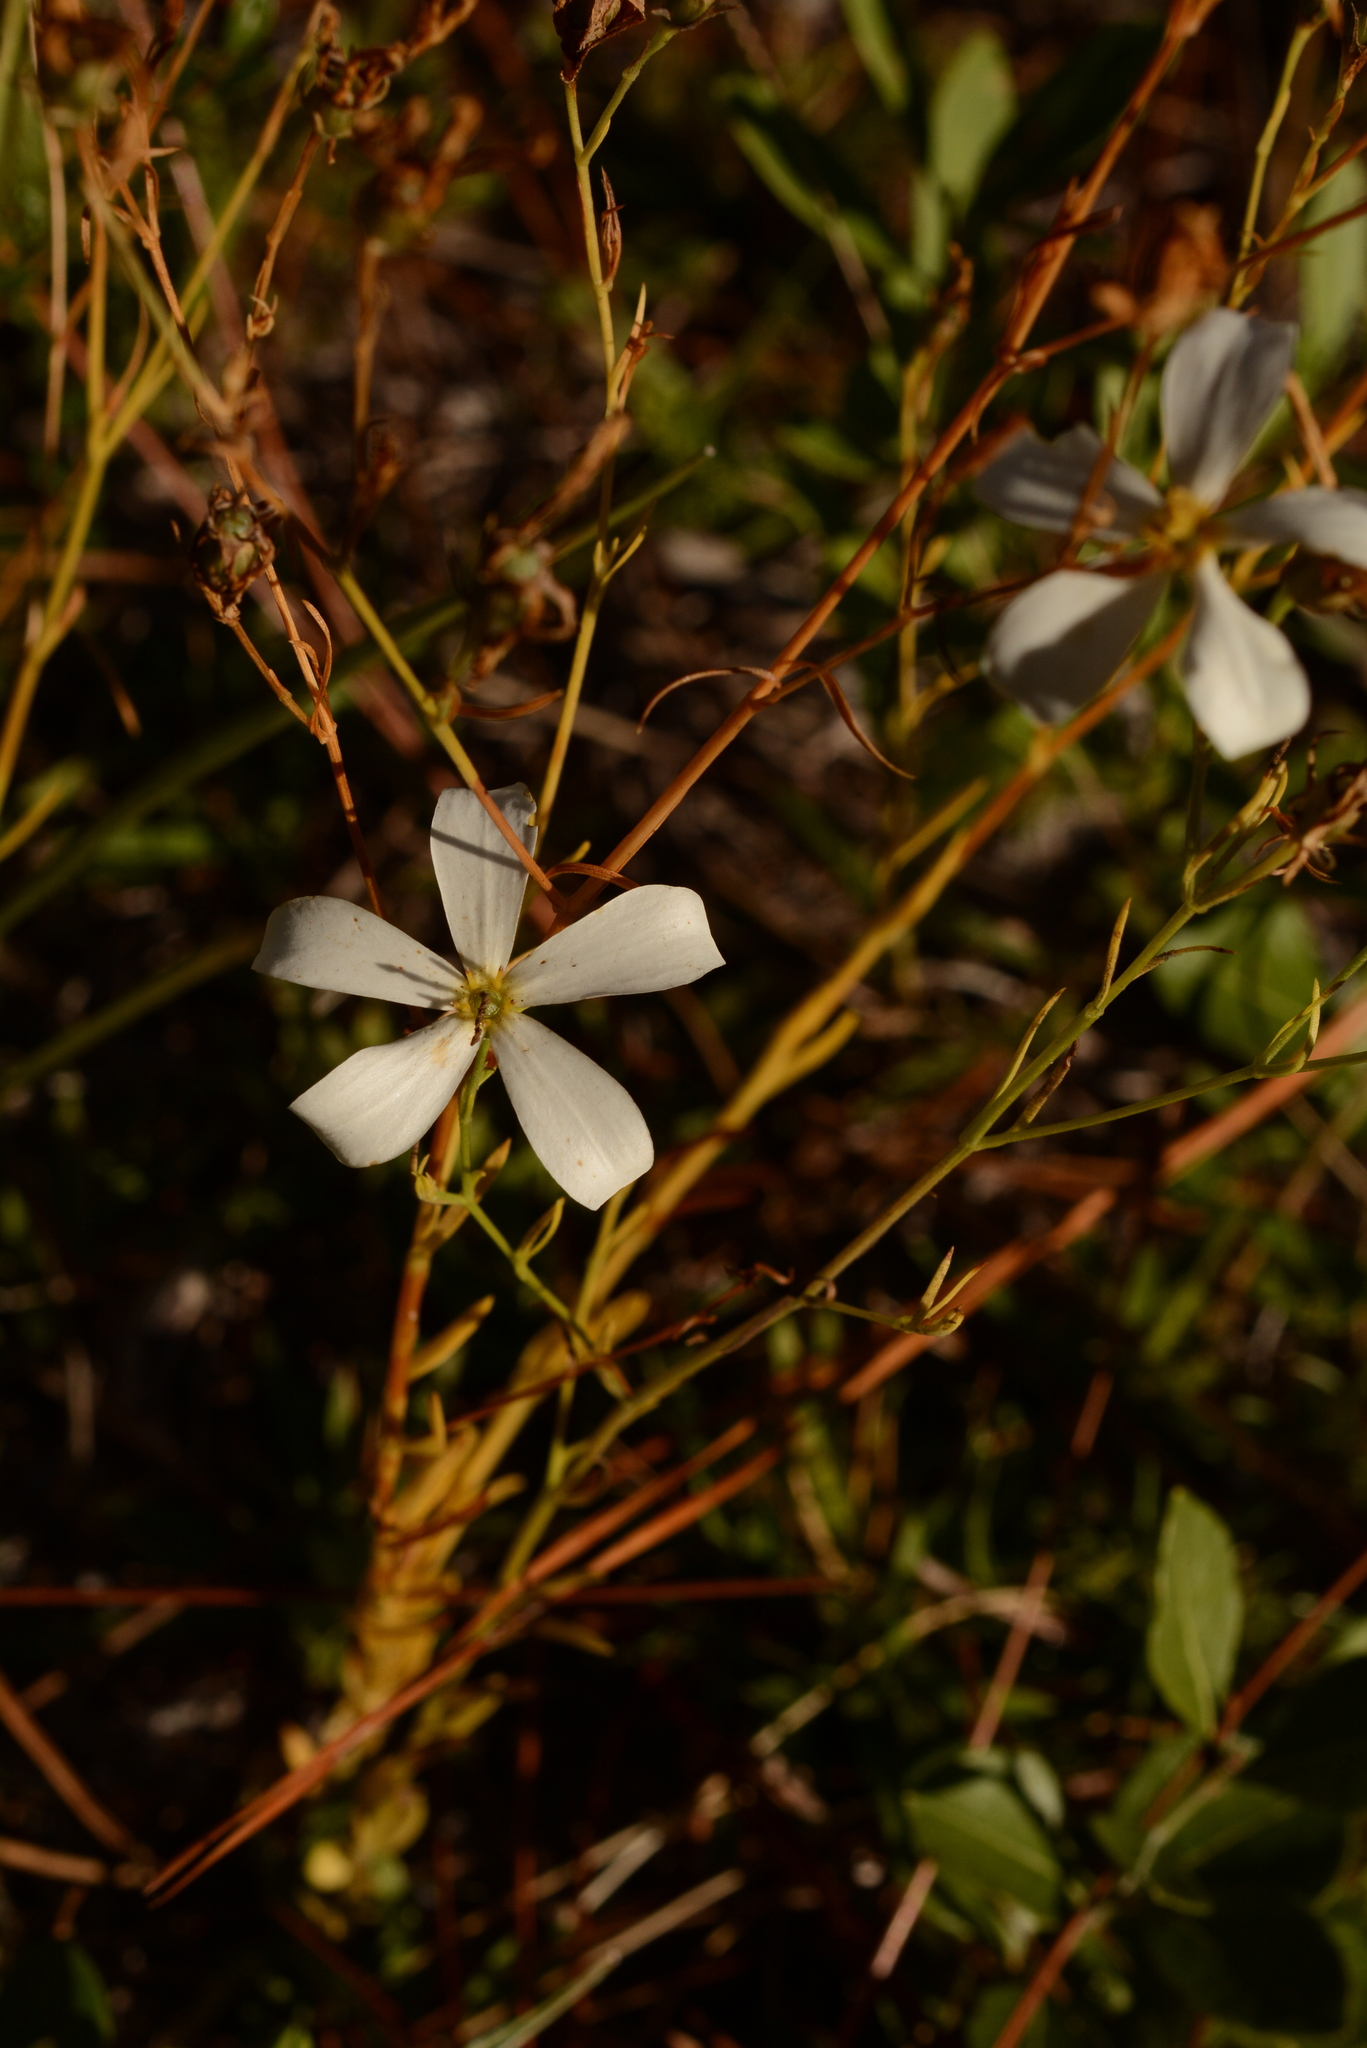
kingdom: Plantae
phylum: Tracheophyta
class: Magnoliopsida
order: Gentianales
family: Gentianaceae
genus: Sabatia
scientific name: Sabatia brevifolia
